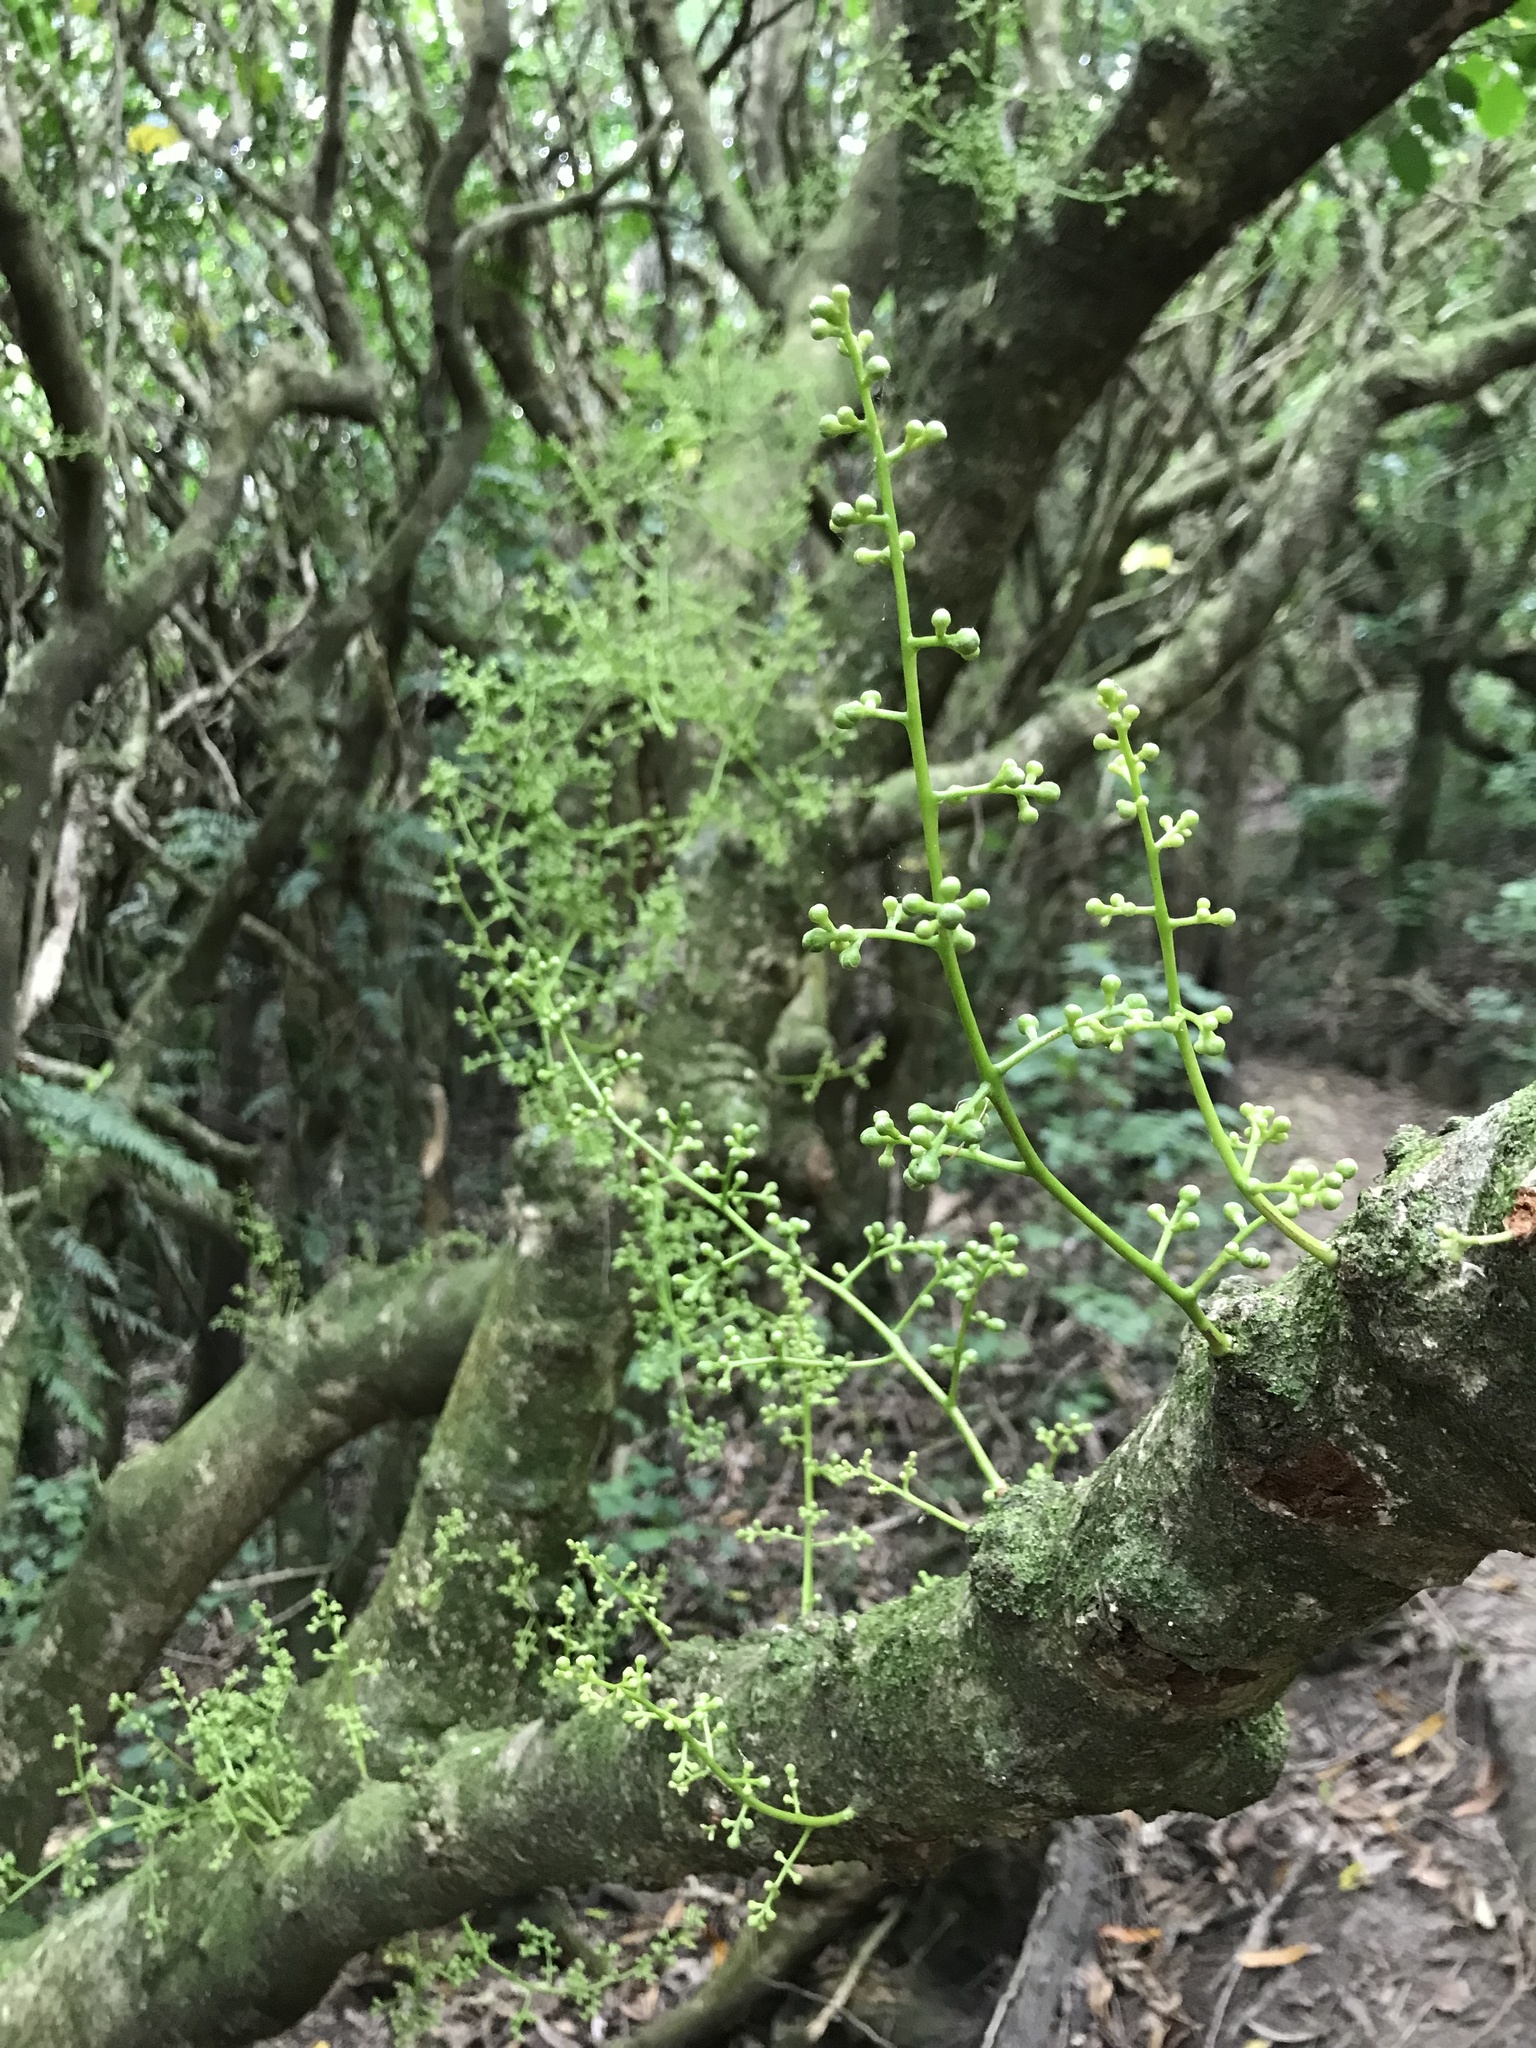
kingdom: Plantae
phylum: Tracheophyta
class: Magnoliopsida
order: Sapindales
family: Meliaceae
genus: Didymocheton
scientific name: Didymocheton spectabilis
